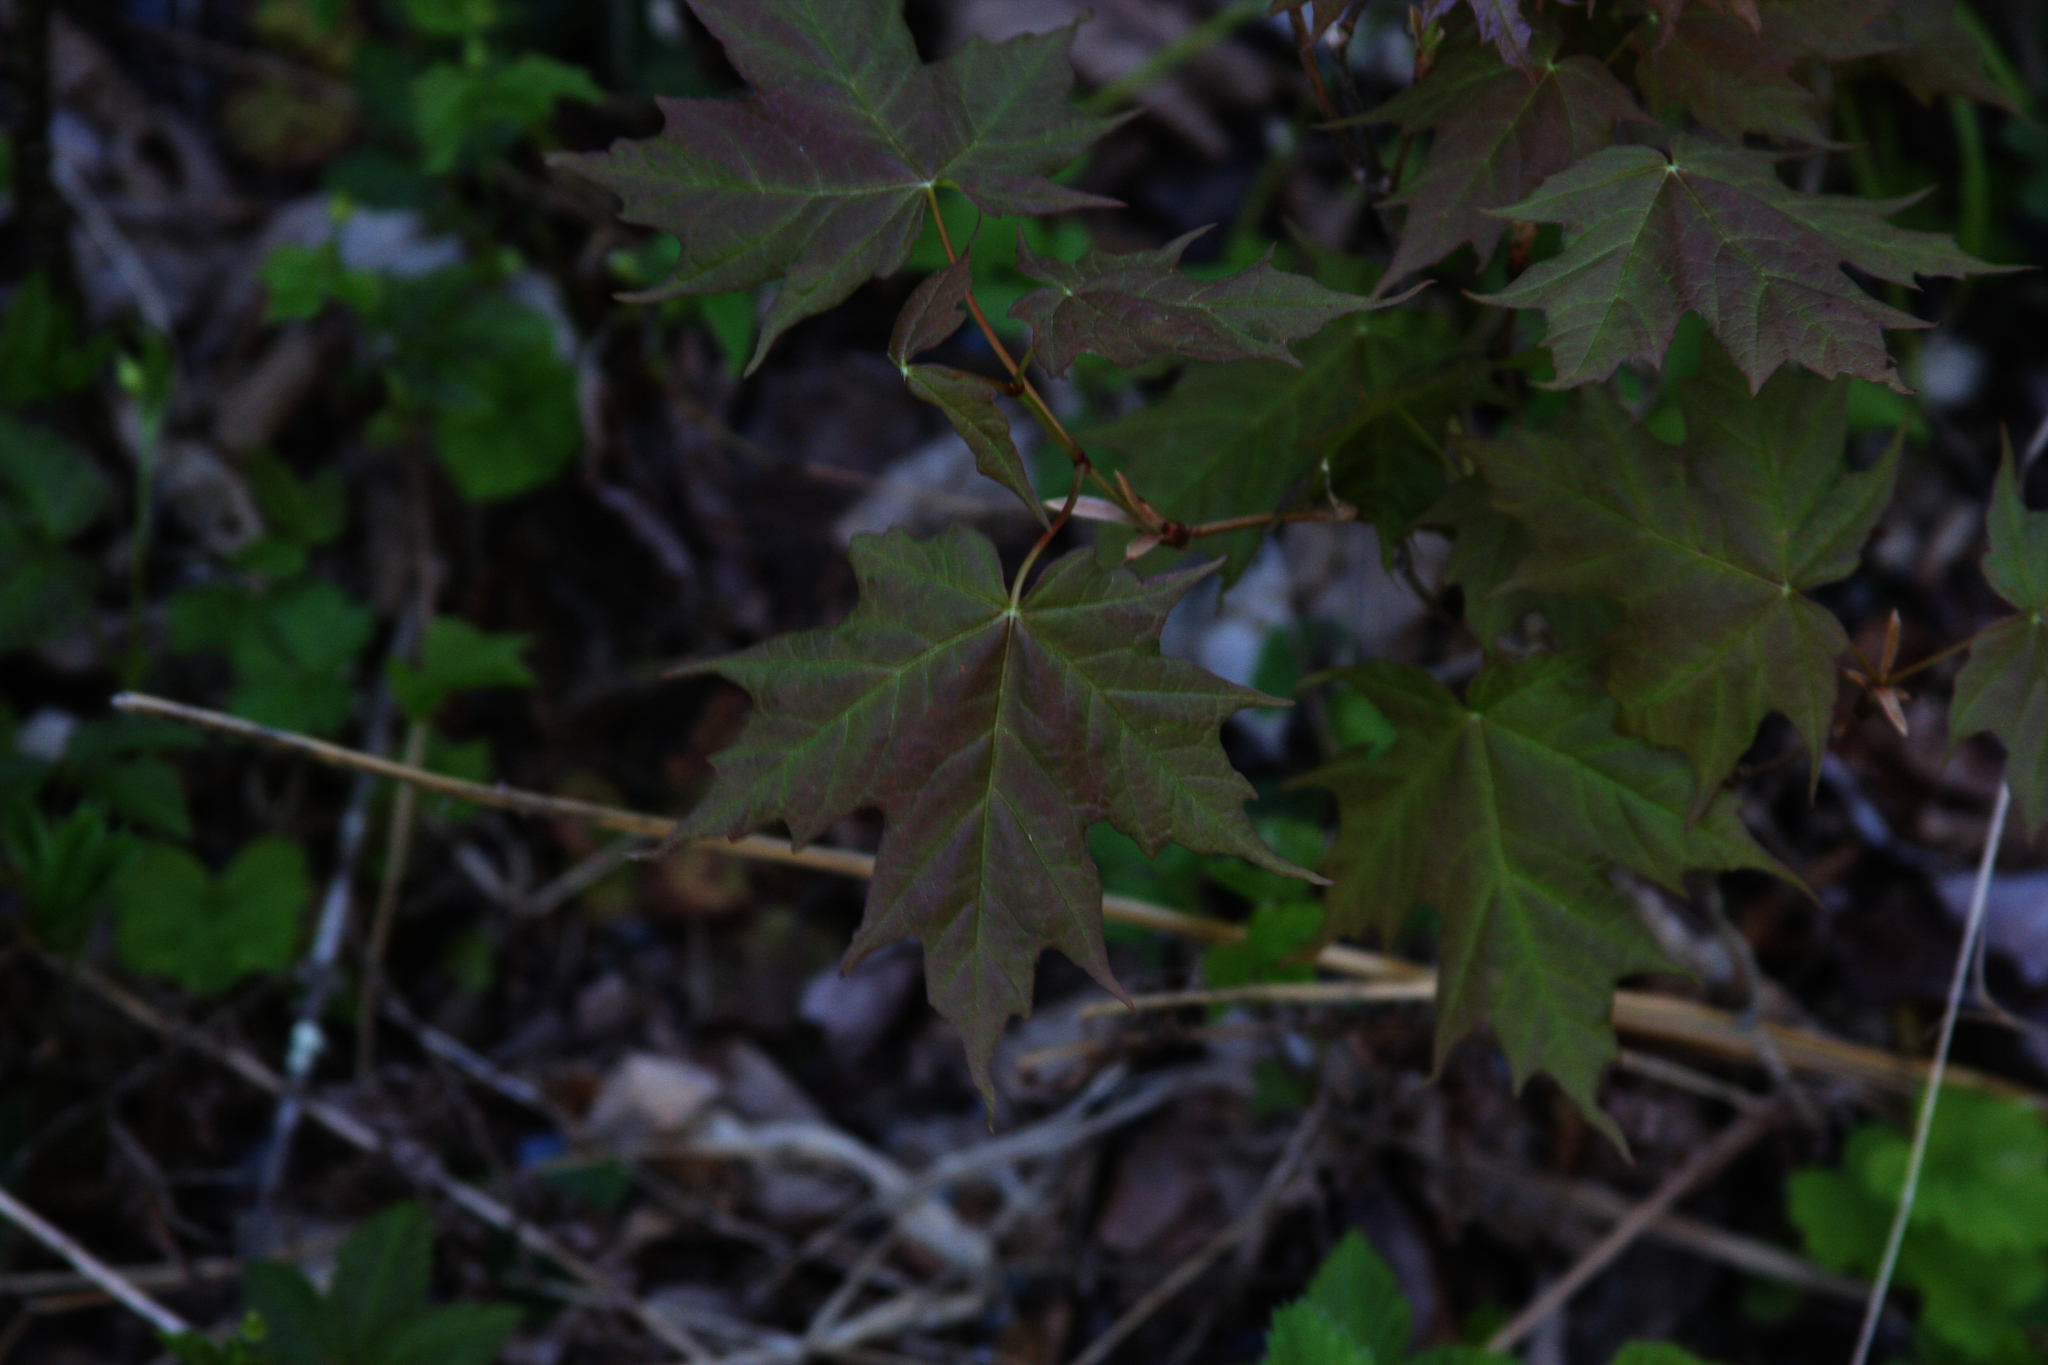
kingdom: Plantae
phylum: Tracheophyta
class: Magnoliopsida
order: Sapindales
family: Sapindaceae
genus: Acer
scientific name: Acer saccharum
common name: Sugar maple
